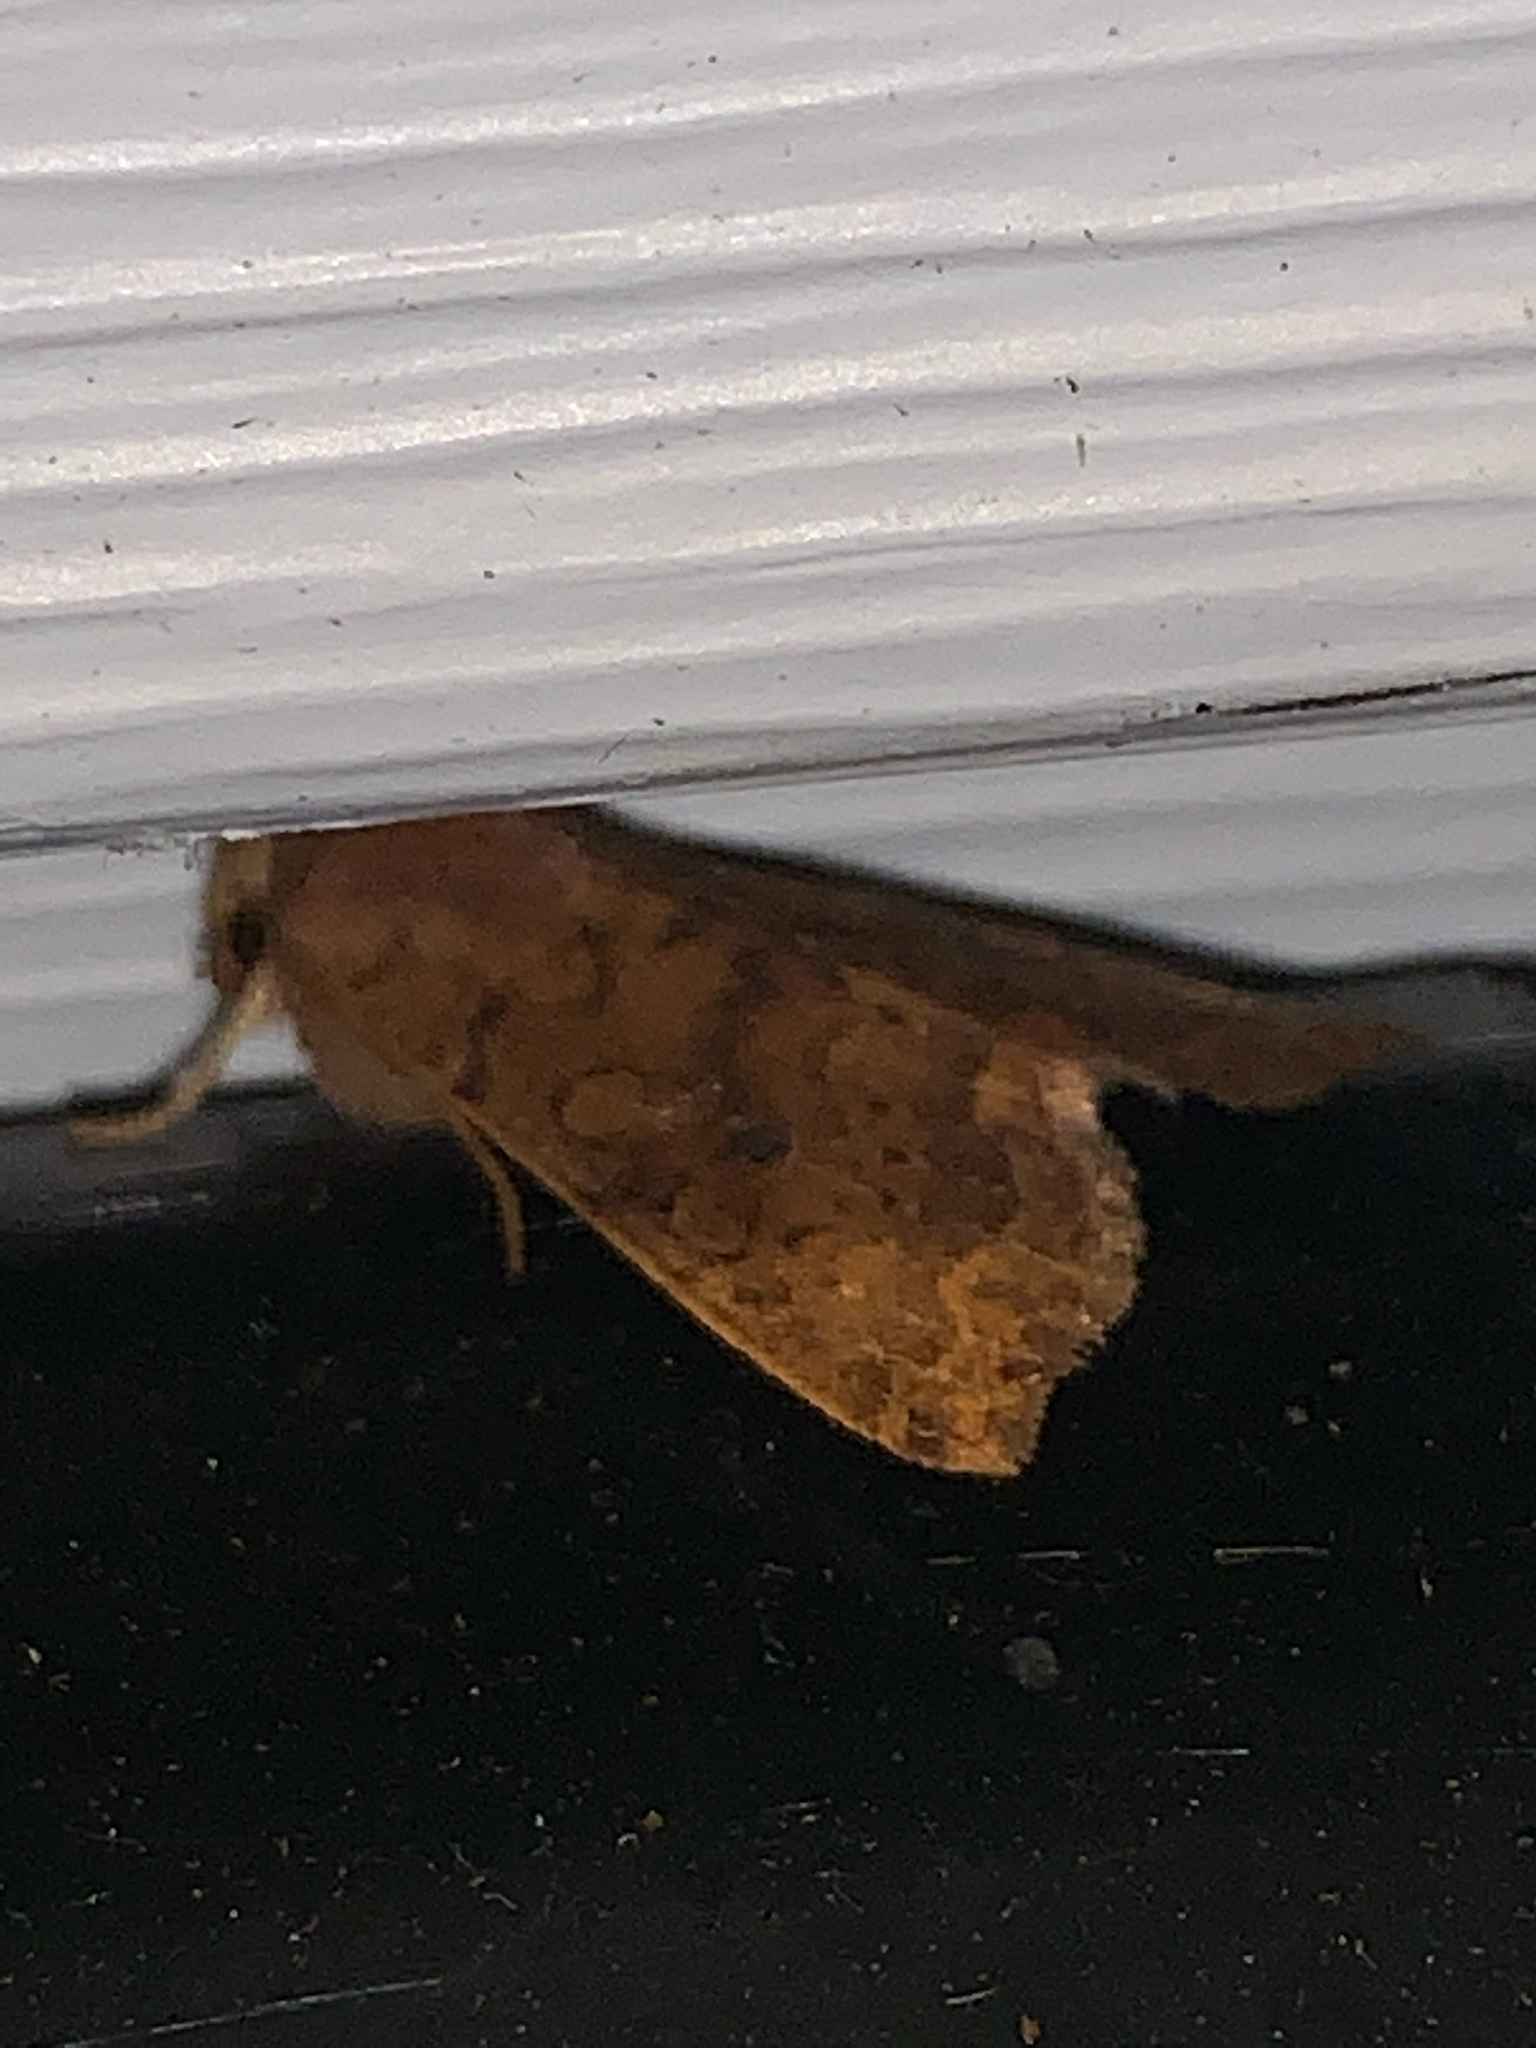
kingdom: Animalia
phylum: Arthropoda
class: Insecta
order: Lepidoptera
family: Noctuidae
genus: Agrochola
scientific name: Agrochola bicolorago
